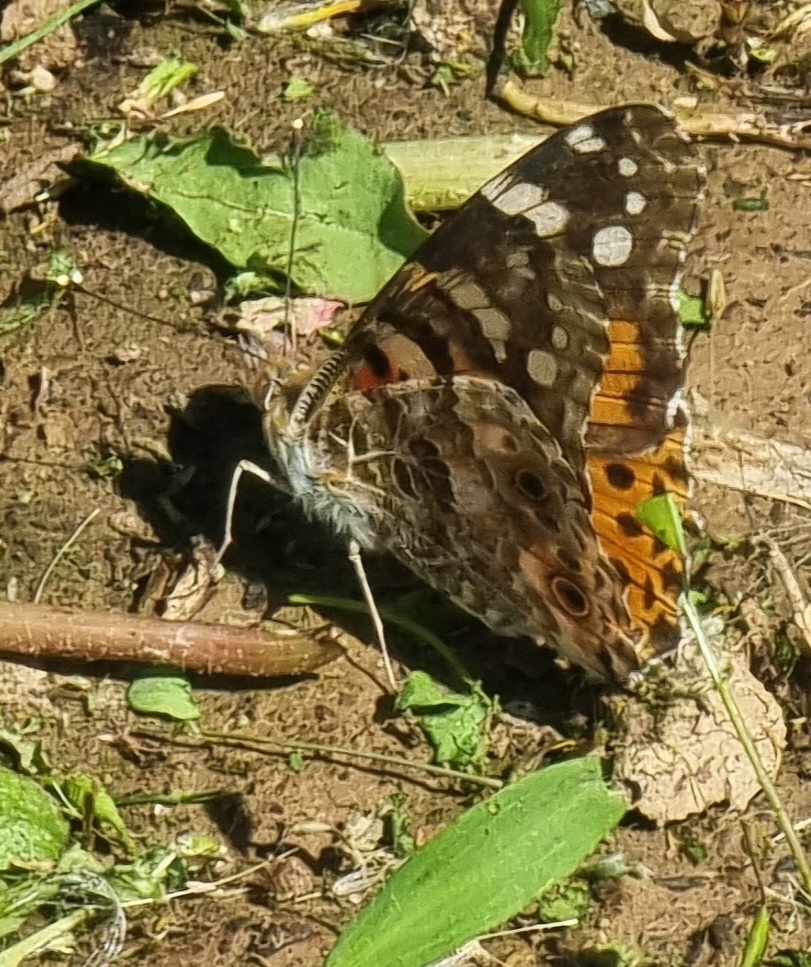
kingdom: Animalia
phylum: Arthropoda
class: Insecta
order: Lepidoptera
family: Nymphalidae
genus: Vanessa
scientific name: Vanessa cardui
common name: Painted lady
